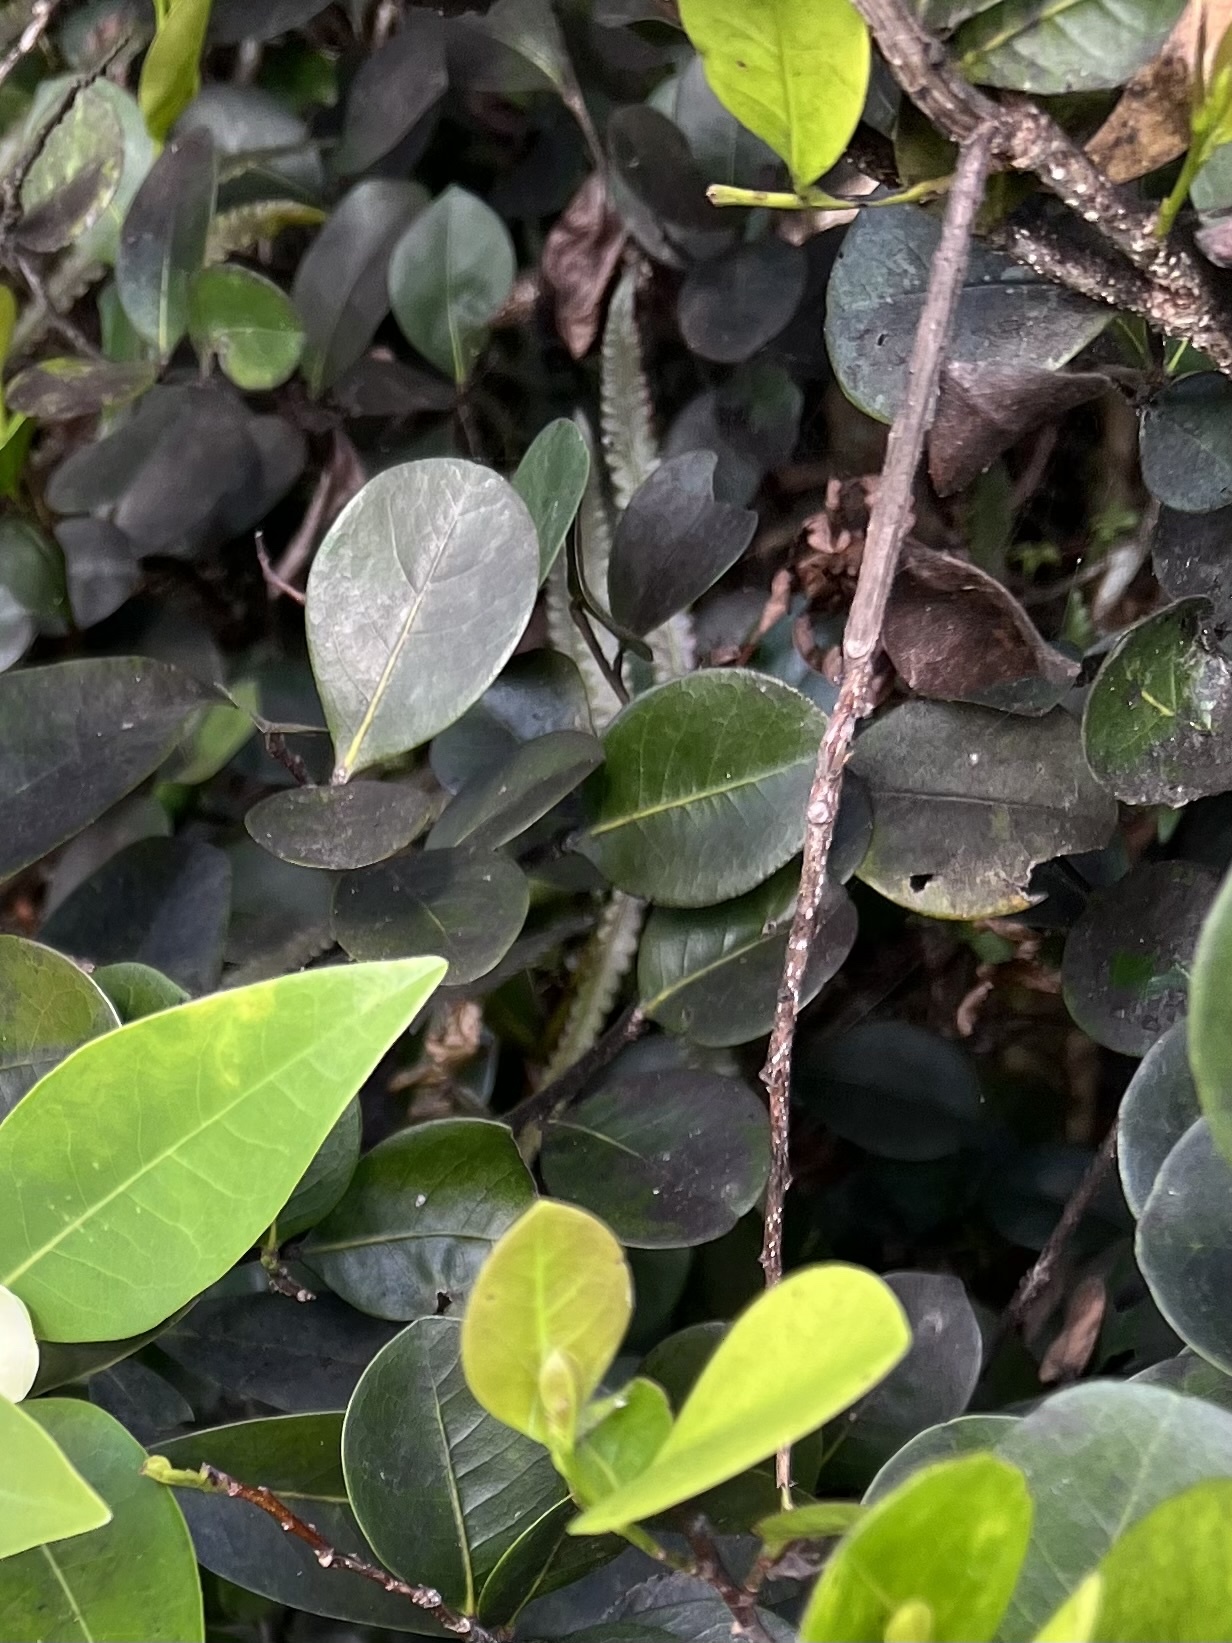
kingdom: Plantae
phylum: Tracheophyta
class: Magnoliopsida
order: Malpighiales
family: Chrysobalanaceae
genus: Chrysobalanus
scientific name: Chrysobalanus icaco
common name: Coco plum
